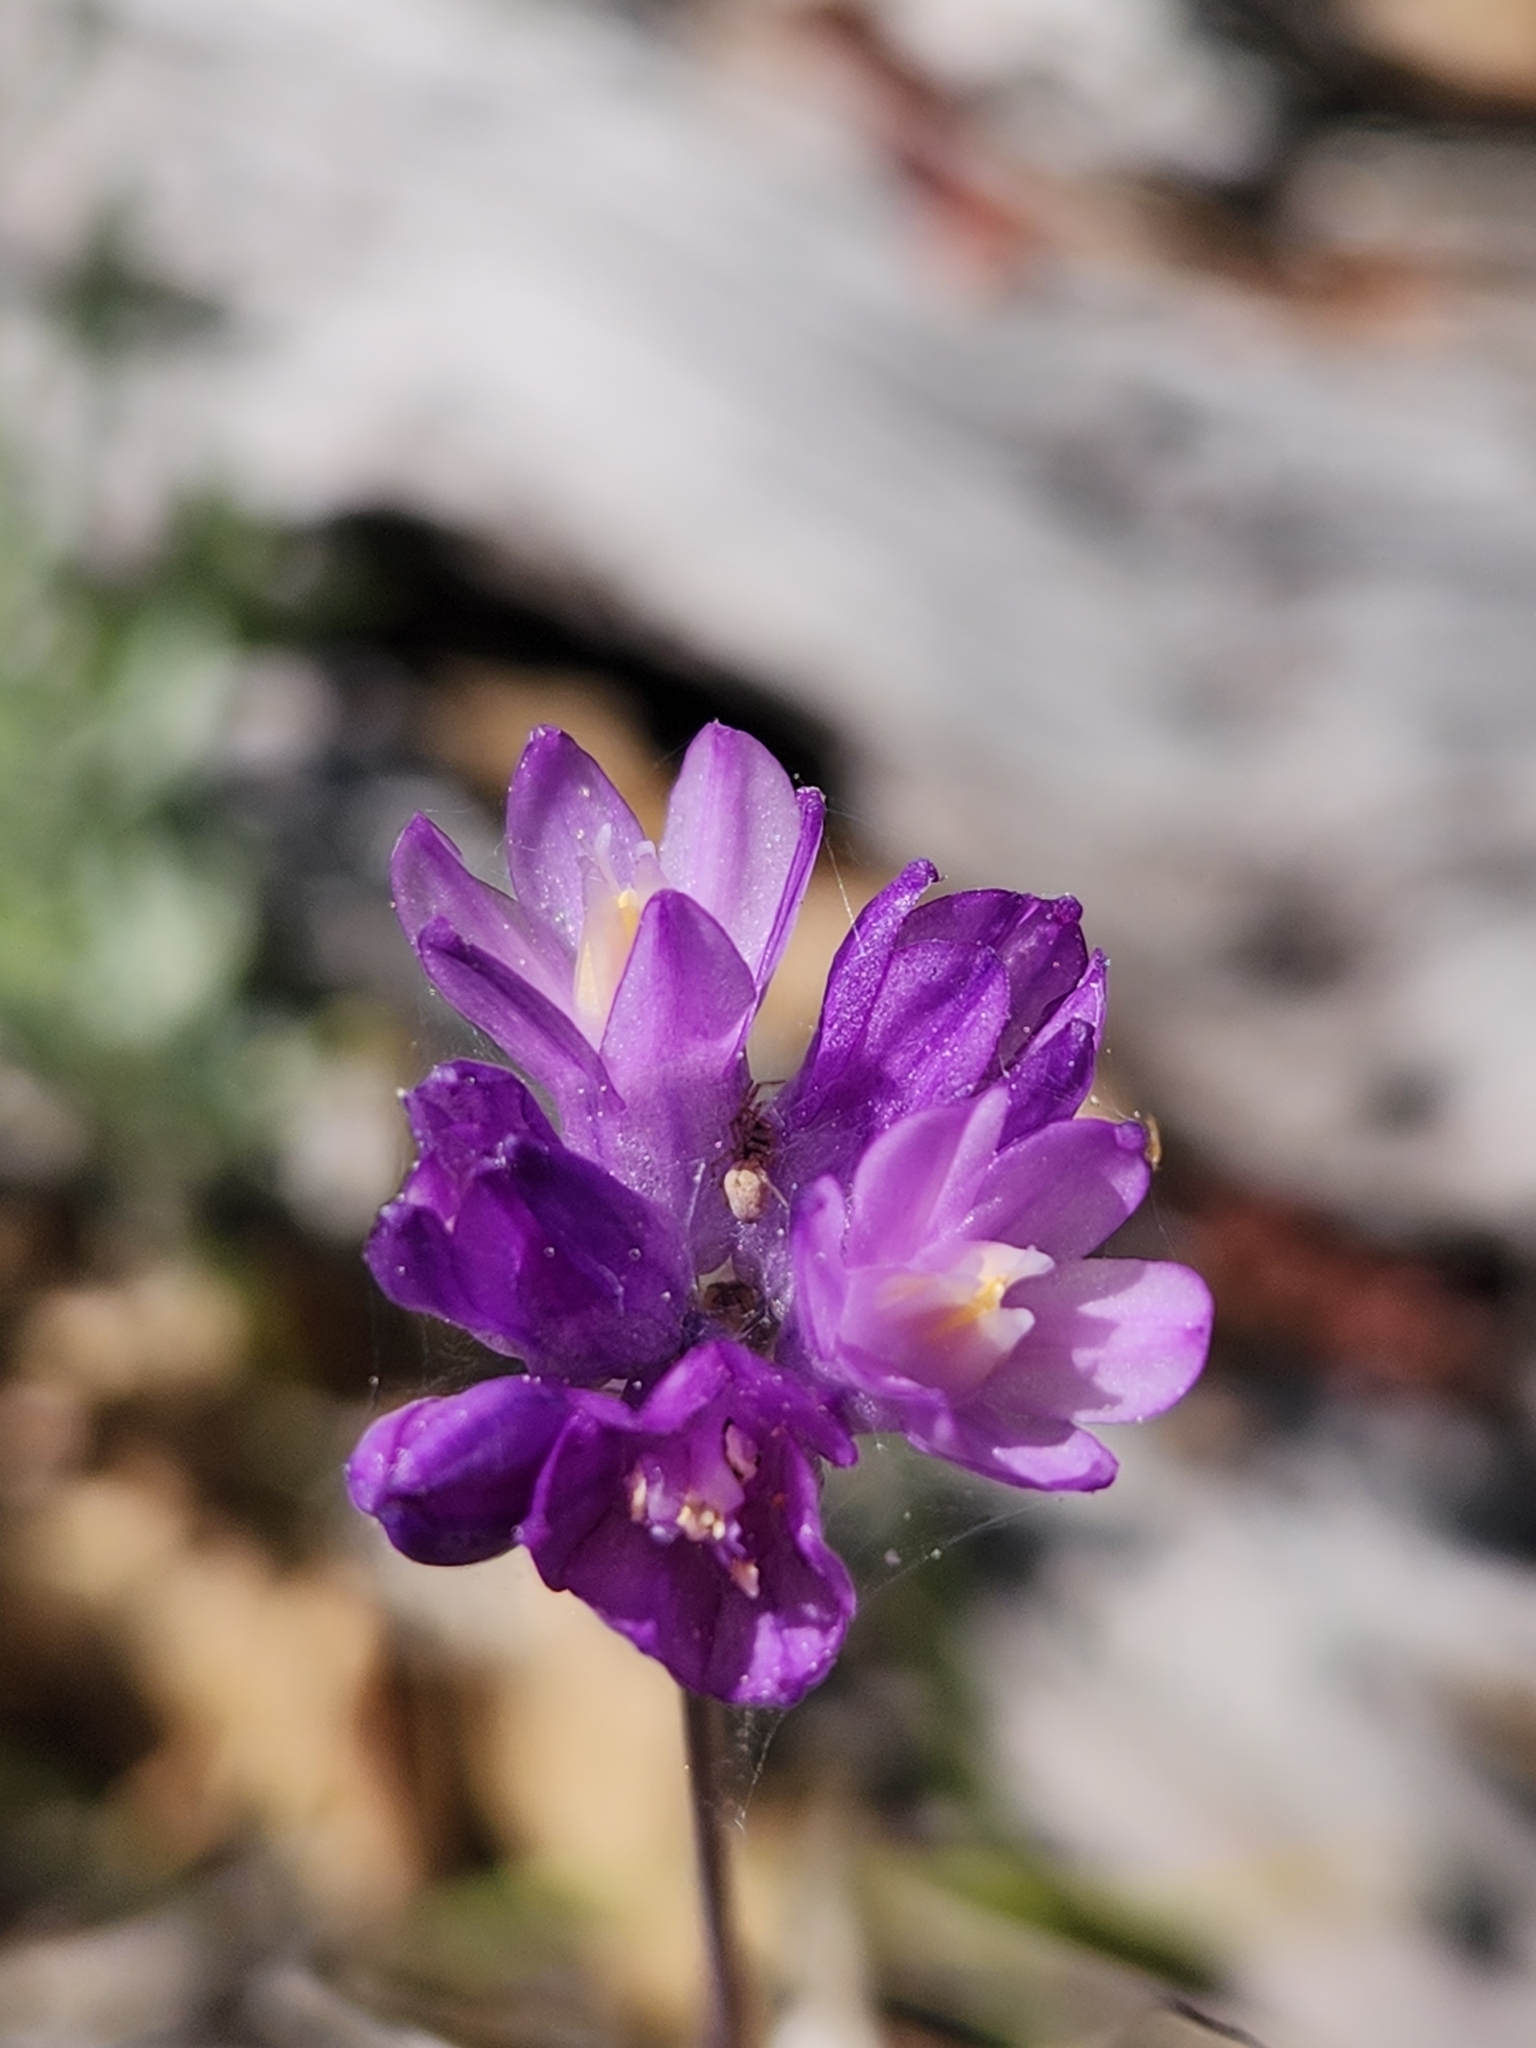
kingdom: Plantae
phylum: Tracheophyta
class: Liliopsida
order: Asparagales
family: Asparagaceae
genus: Dipterostemon
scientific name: Dipterostemon capitatus
